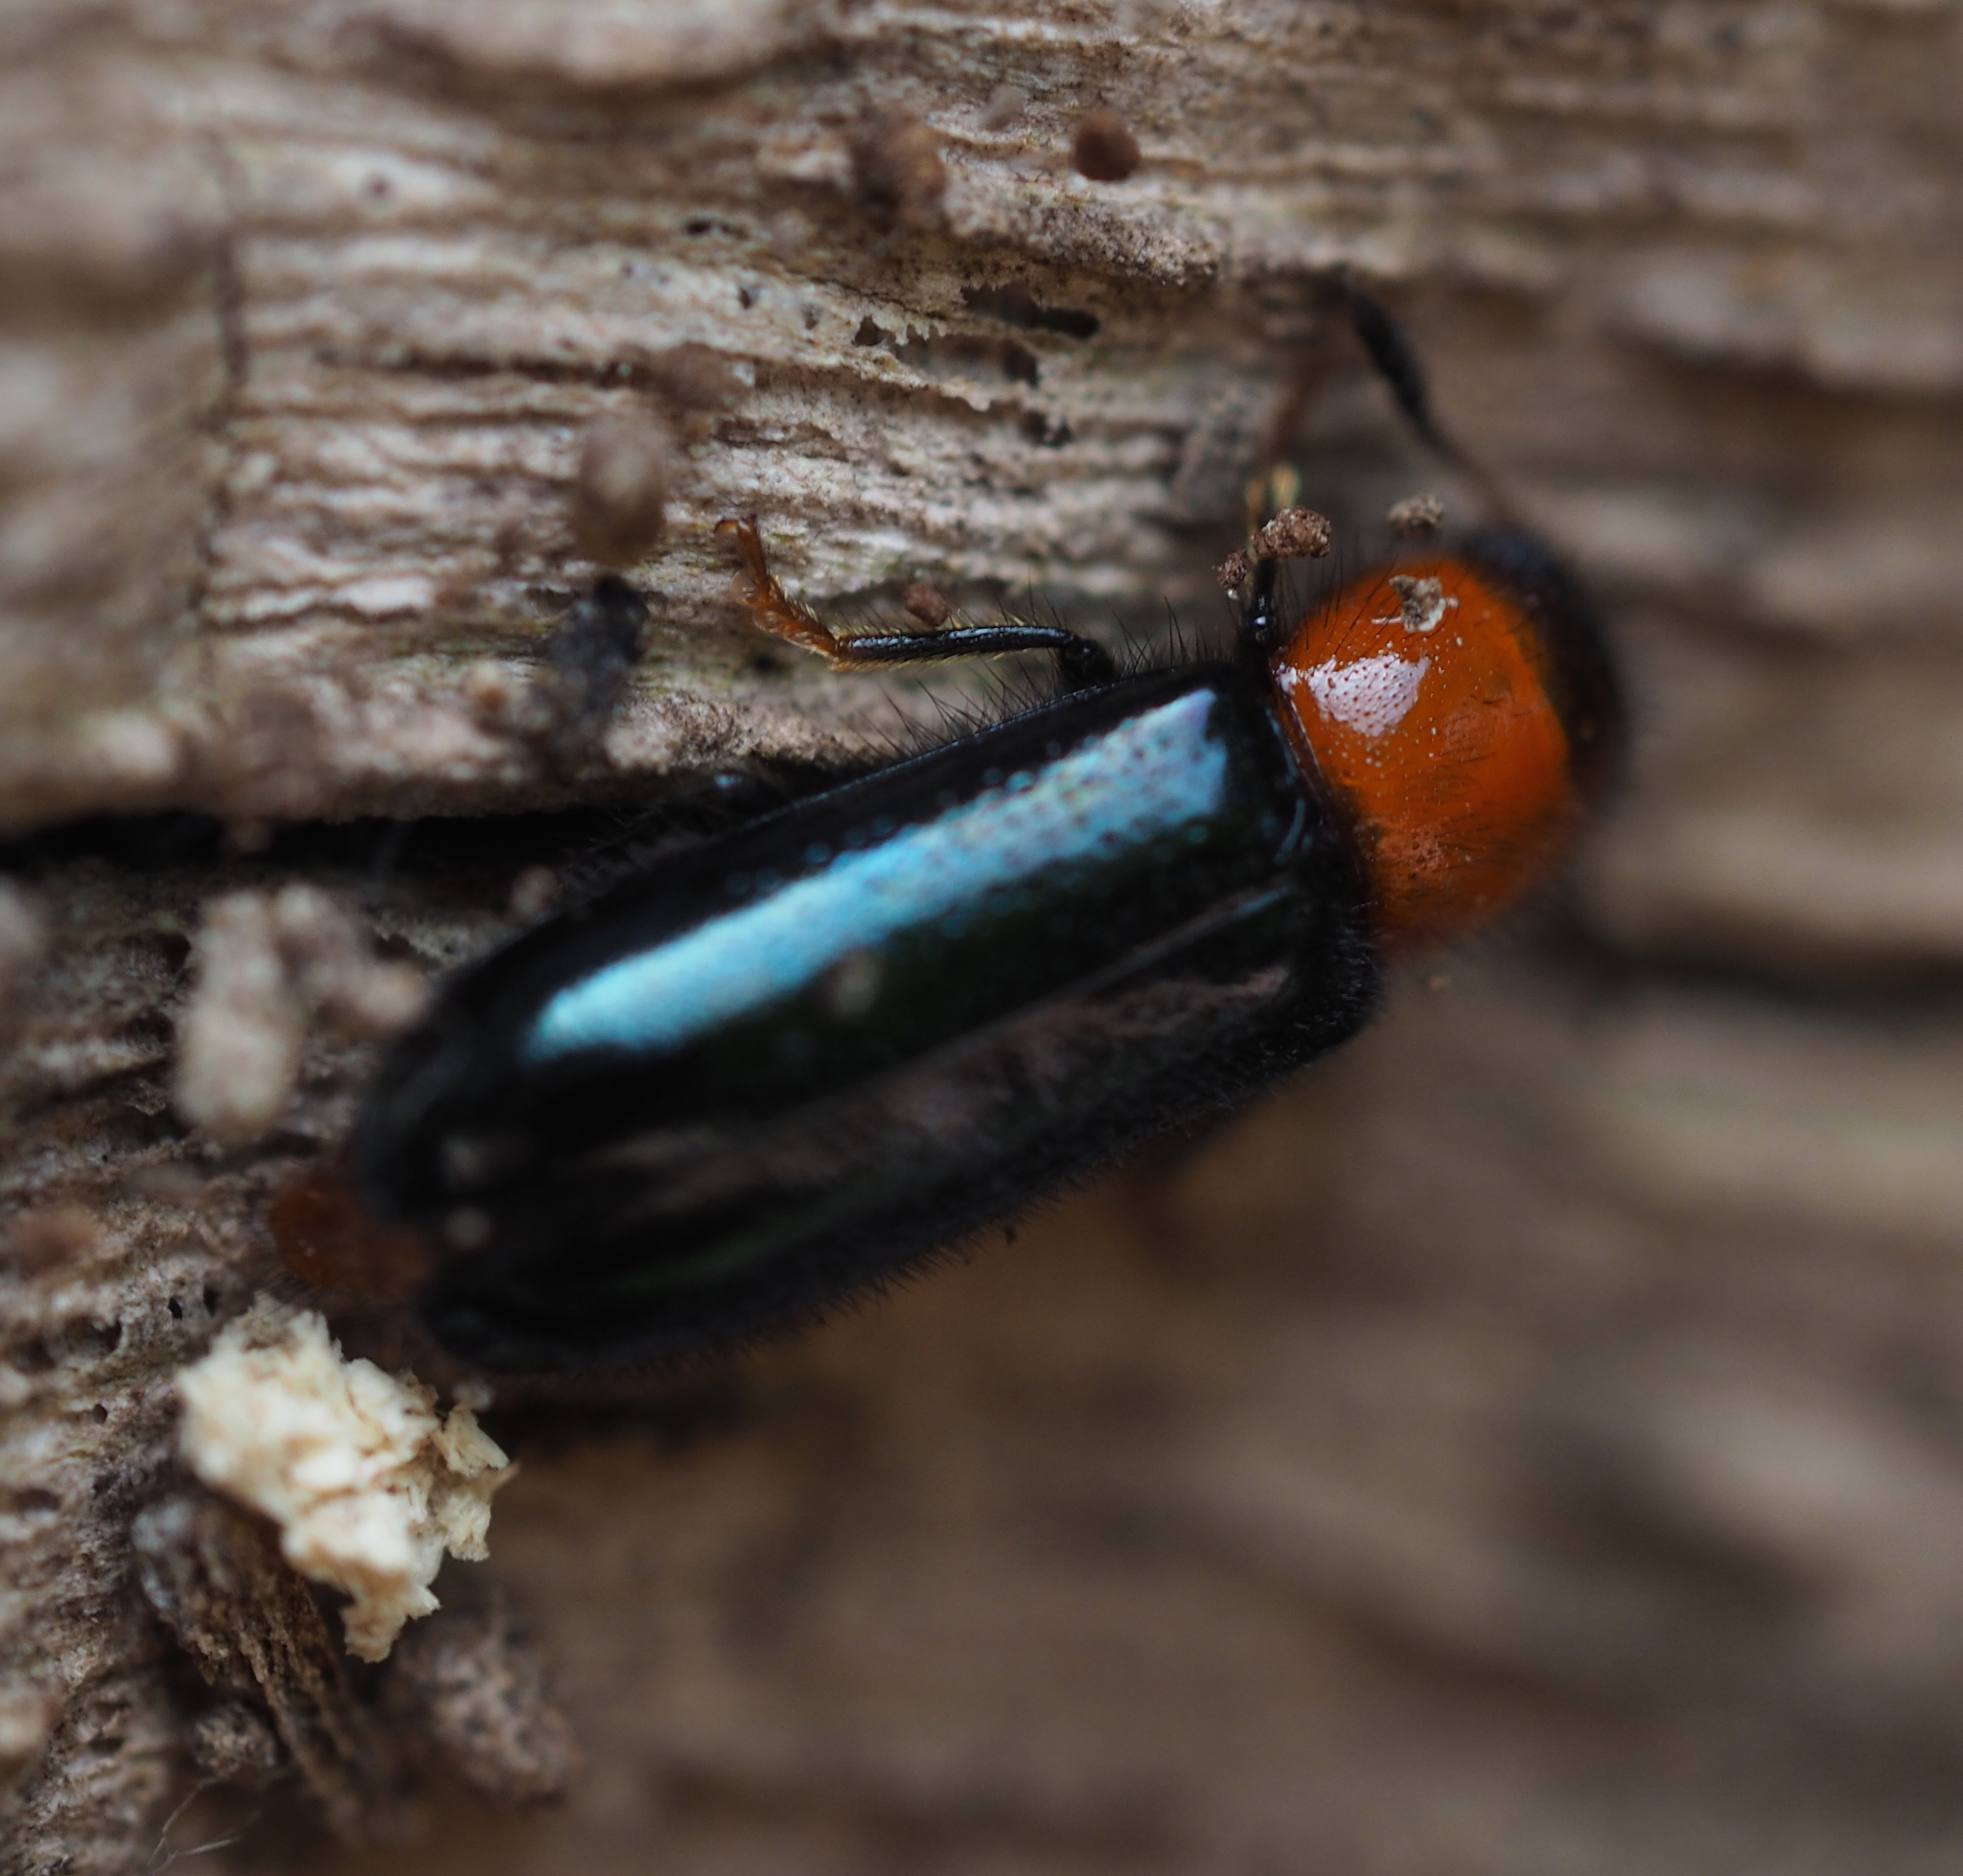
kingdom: Animalia
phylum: Arthropoda
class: Insecta
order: Coleoptera
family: Cleridae
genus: Dermestoides
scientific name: Dermestoides sanguinicollis
